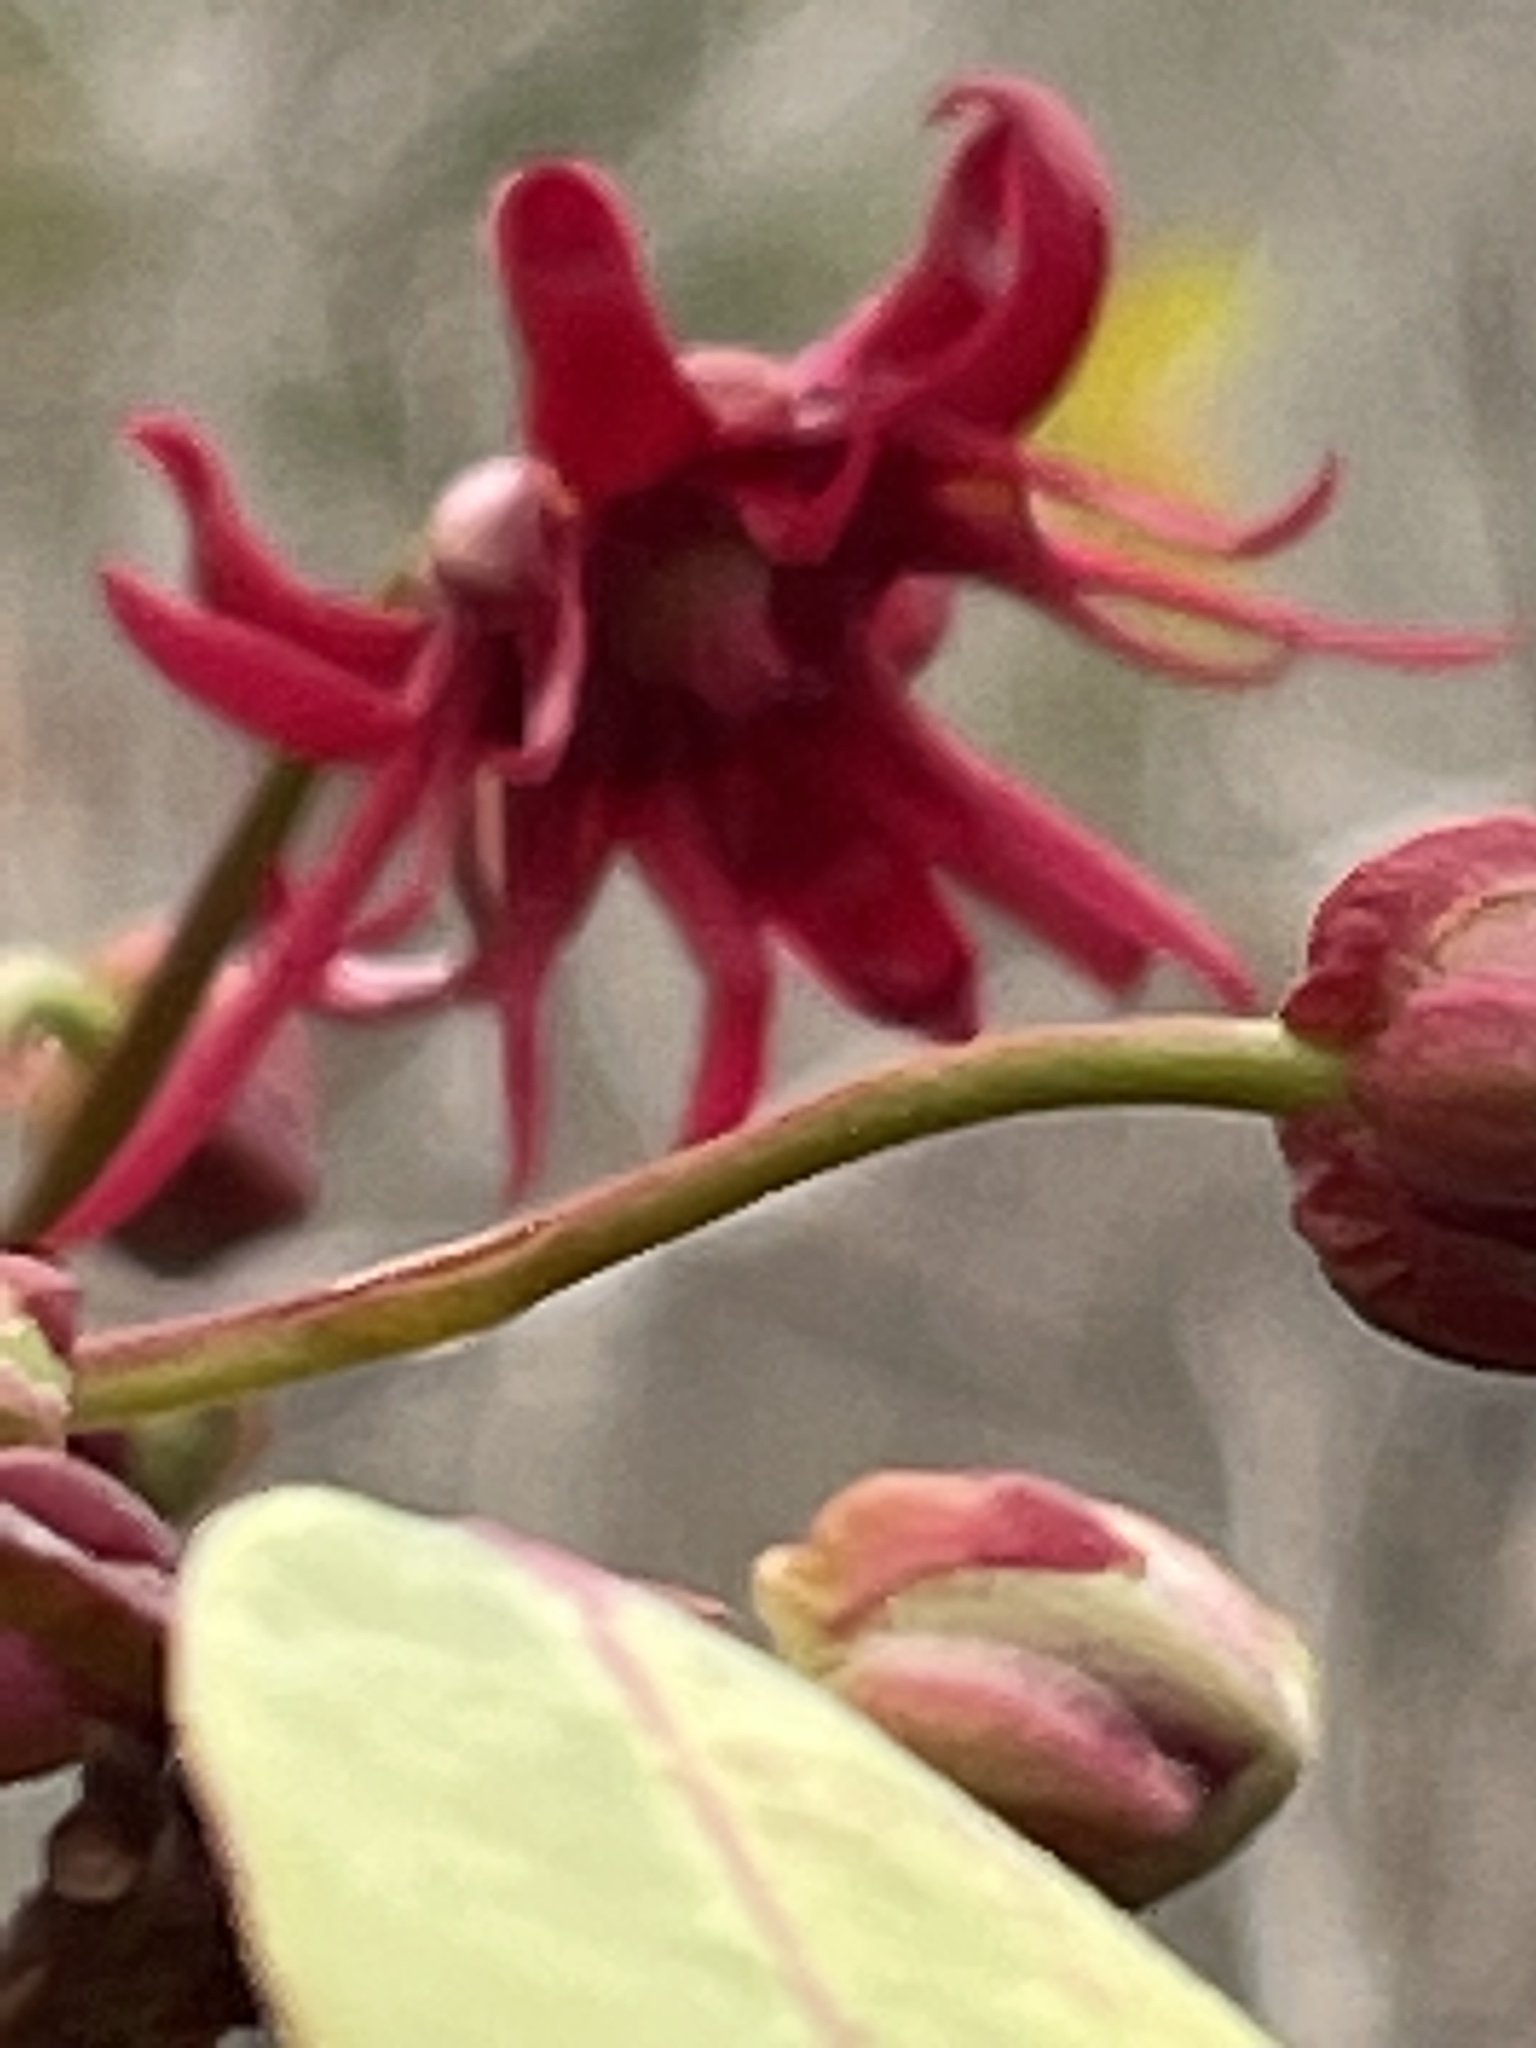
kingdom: Plantae
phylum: Tracheophyta
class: Magnoliopsida
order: Austrobaileyales
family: Schisandraceae
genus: Illicium
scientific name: Illicium floridanum
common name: Florida anisetree
